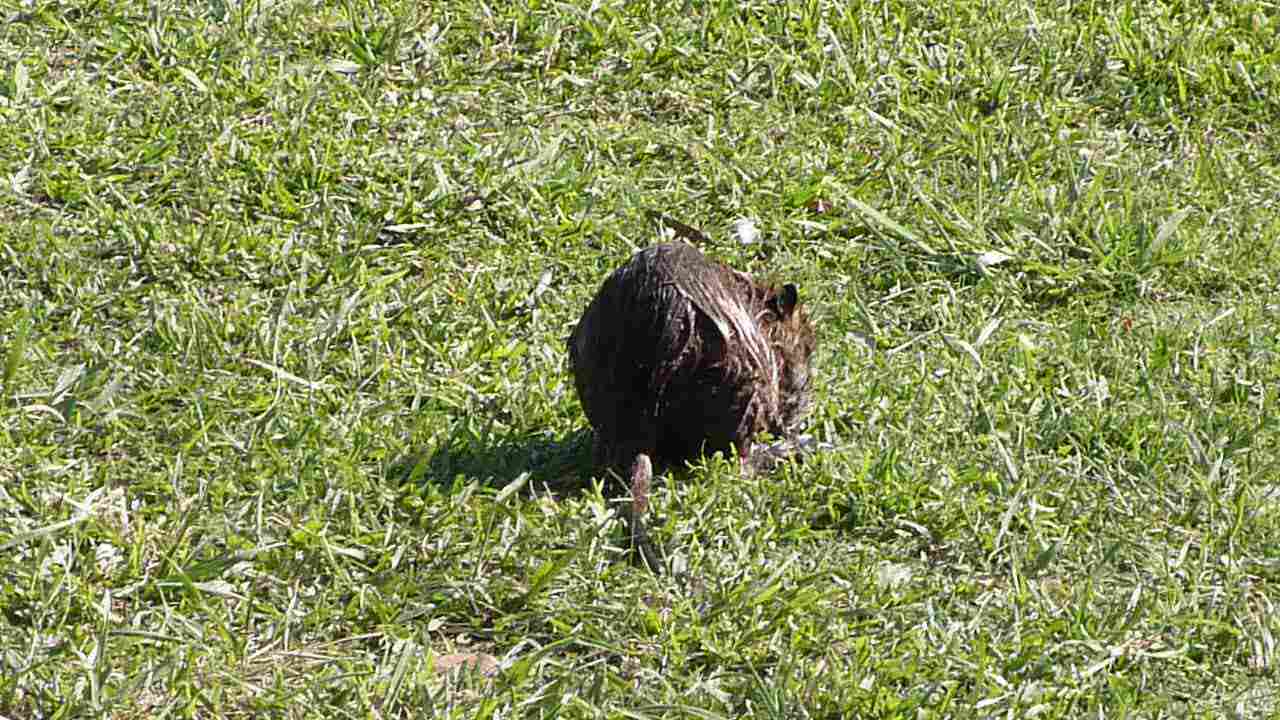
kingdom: Animalia
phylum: Chordata
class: Mammalia
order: Rodentia
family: Myocastoridae
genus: Myocastor
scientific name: Myocastor coypus
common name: Coypu
